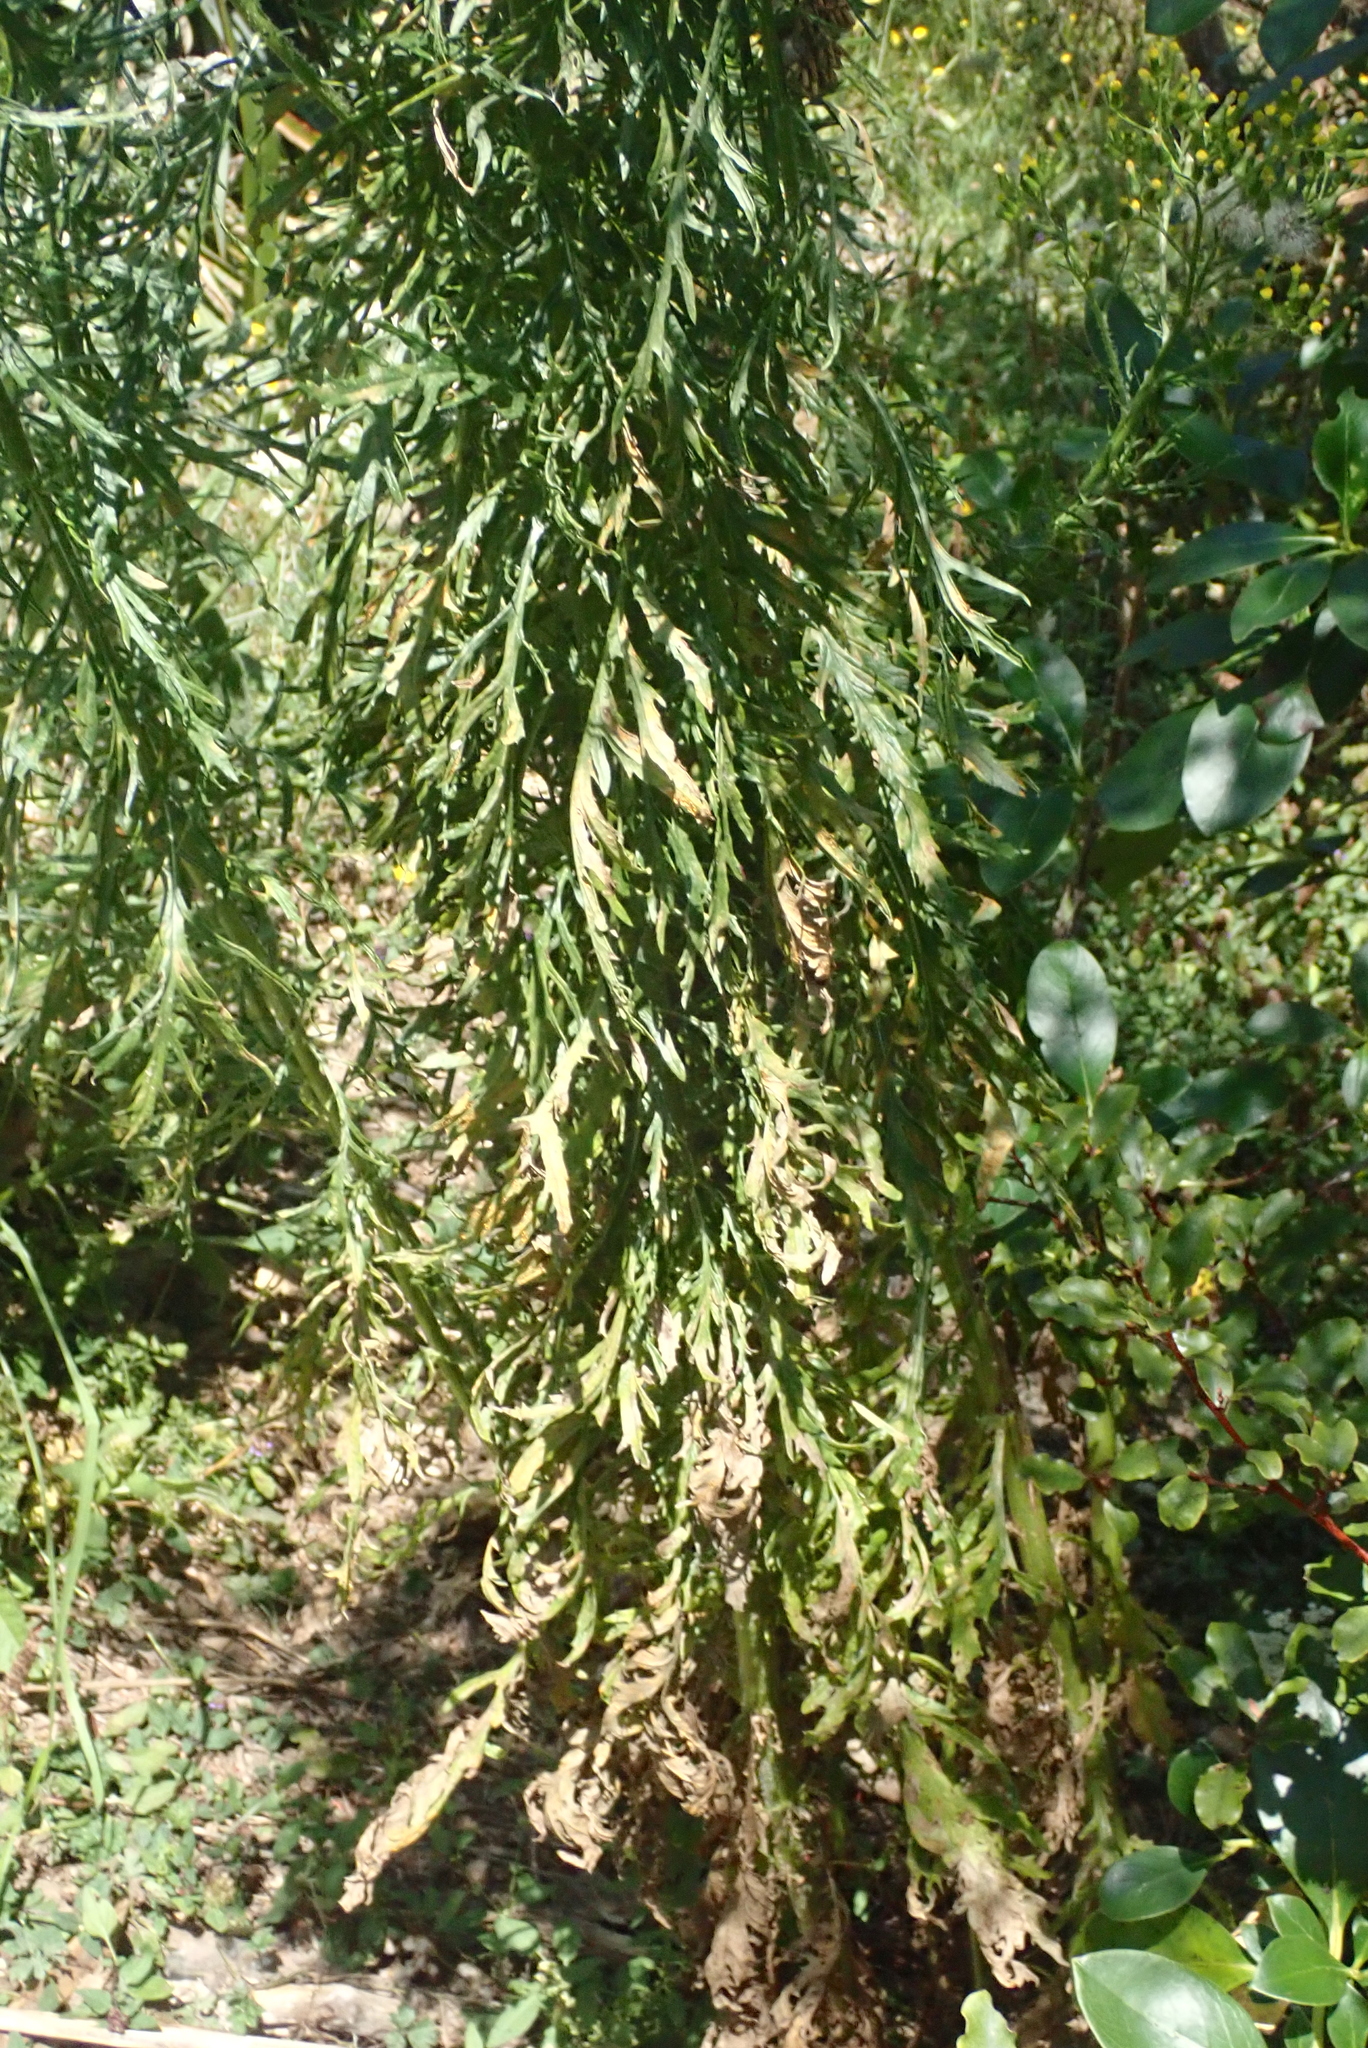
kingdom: Plantae
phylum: Tracheophyta
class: Magnoliopsida
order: Asterales
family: Asteraceae
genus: Senecio
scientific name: Senecio esleri
